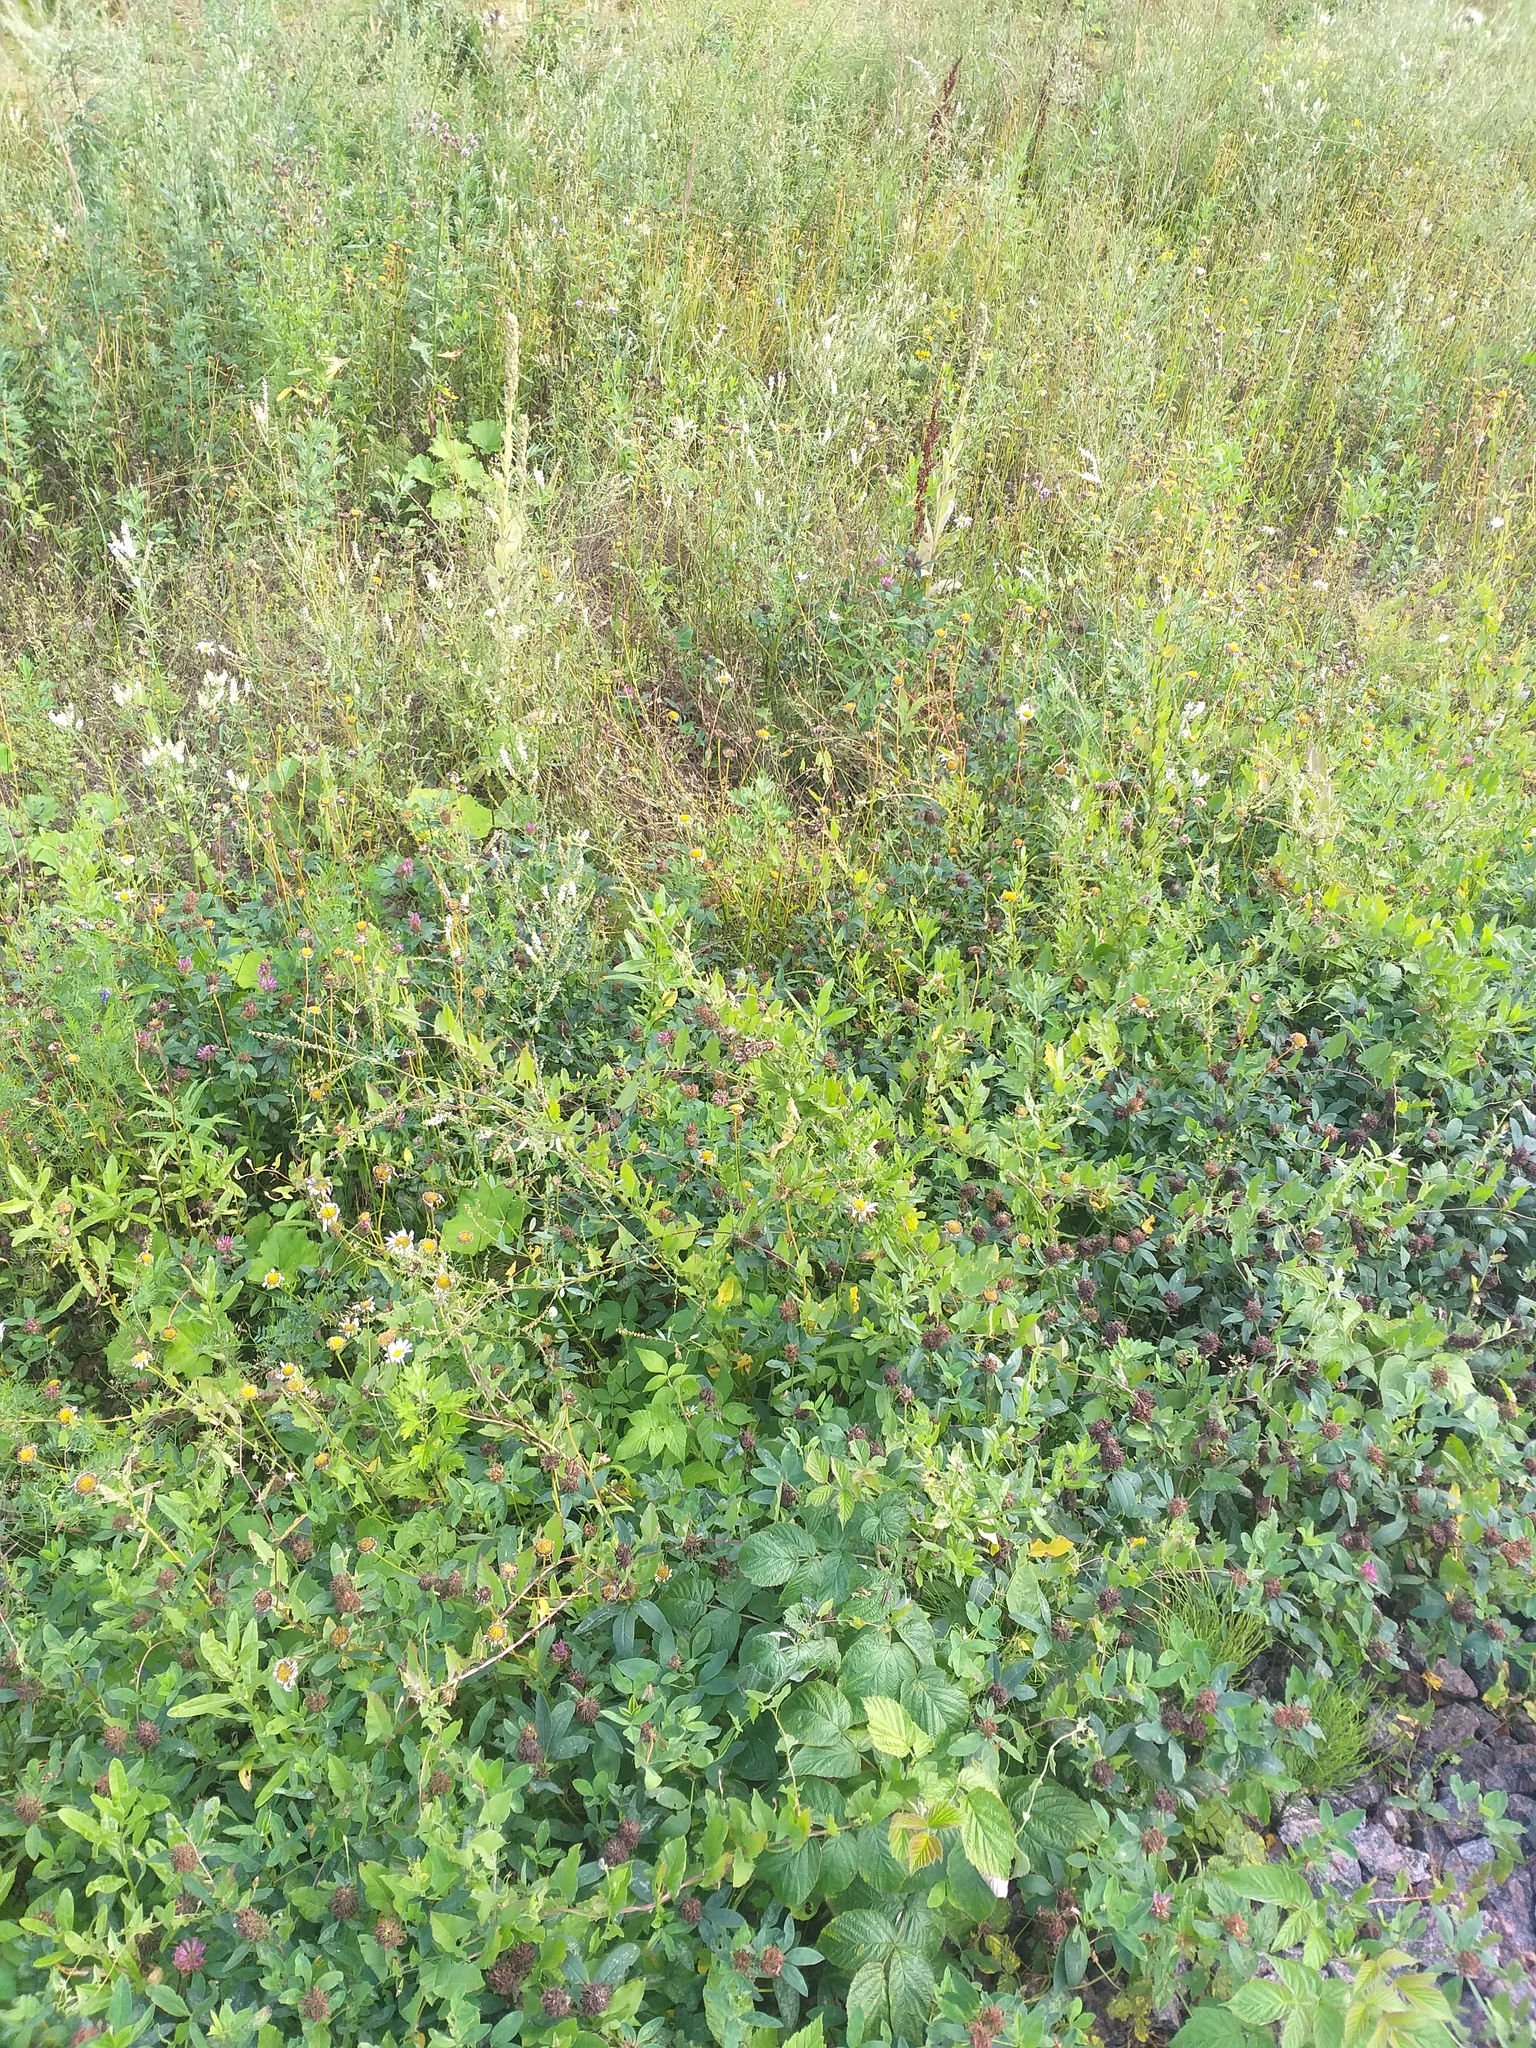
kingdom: Plantae
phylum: Tracheophyta
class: Magnoliopsida
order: Solanales
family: Convolvulaceae
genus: Convolvulus
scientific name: Convolvulus arvensis
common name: Field bindweed
